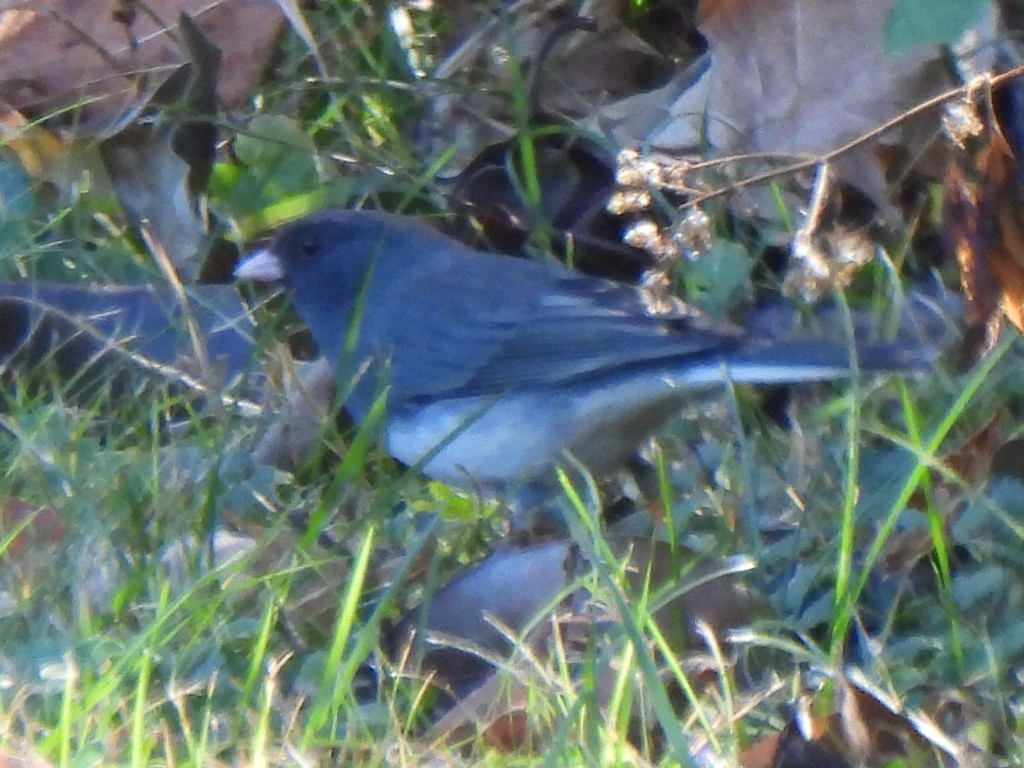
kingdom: Animalia
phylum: Chordata
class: Aves
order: Passeriformes
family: Passerellidae
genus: Junco
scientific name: Junco hyemalis
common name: Dark-eyed junco
